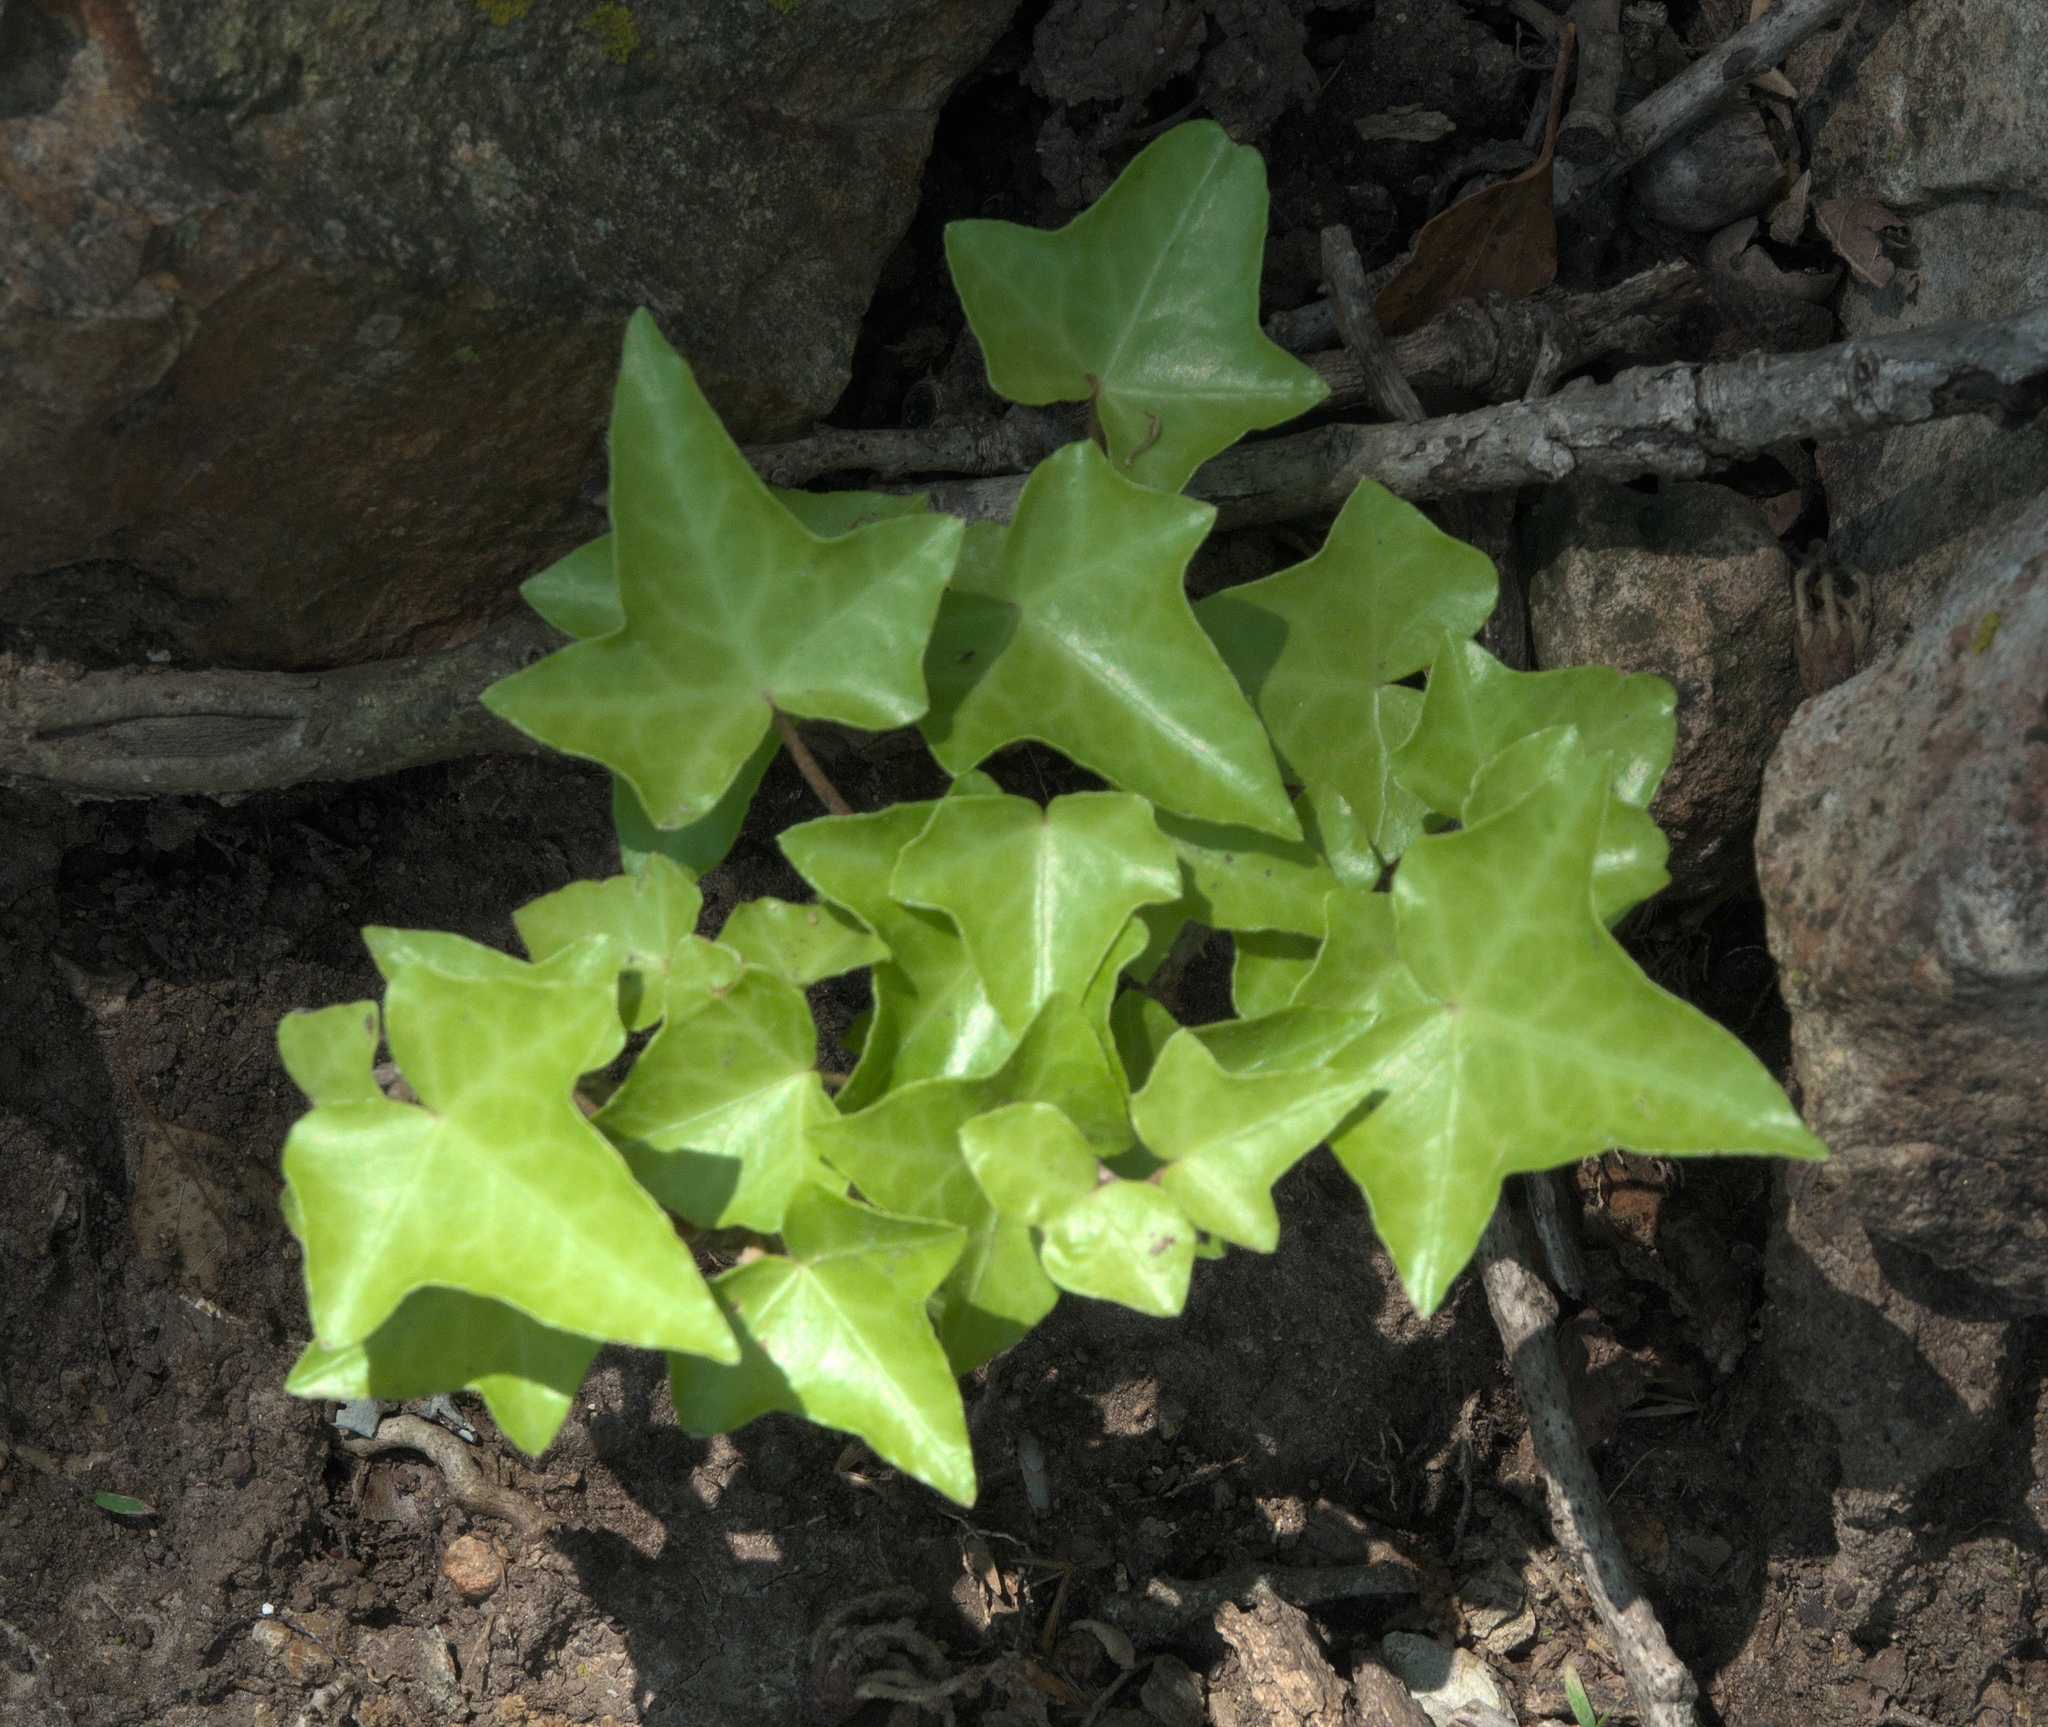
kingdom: Plantae
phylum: Tracheophyta
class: Magnoliopsida
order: Apiales
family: Araliaceae
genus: Hedera
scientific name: Hedera helix
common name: Ivy
